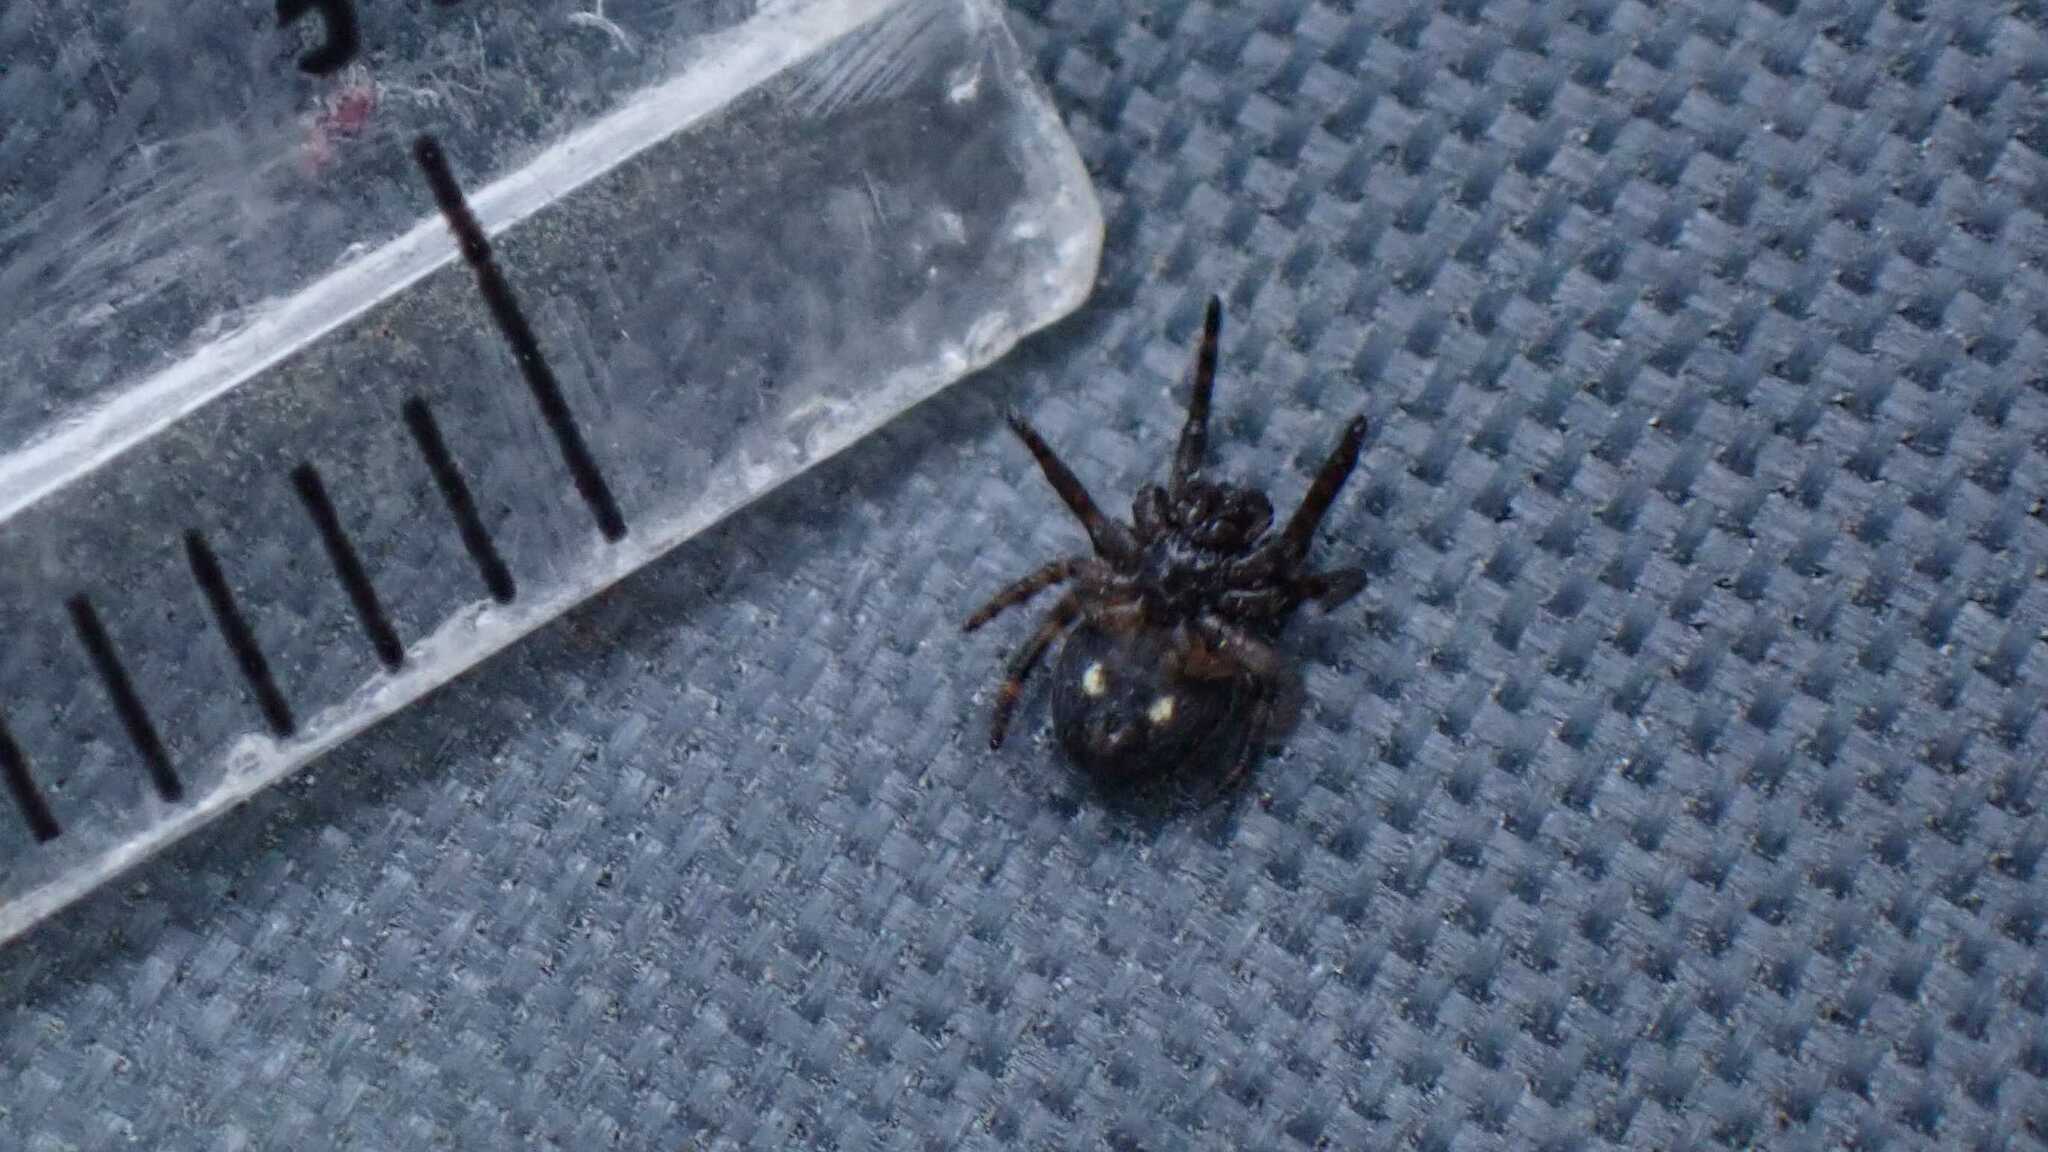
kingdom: Animalia
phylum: Arthropoda
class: Arachnida
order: Araneae
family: Araneidae
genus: Nuctenea
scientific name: Nuctenea umbratica
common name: Toad spider
